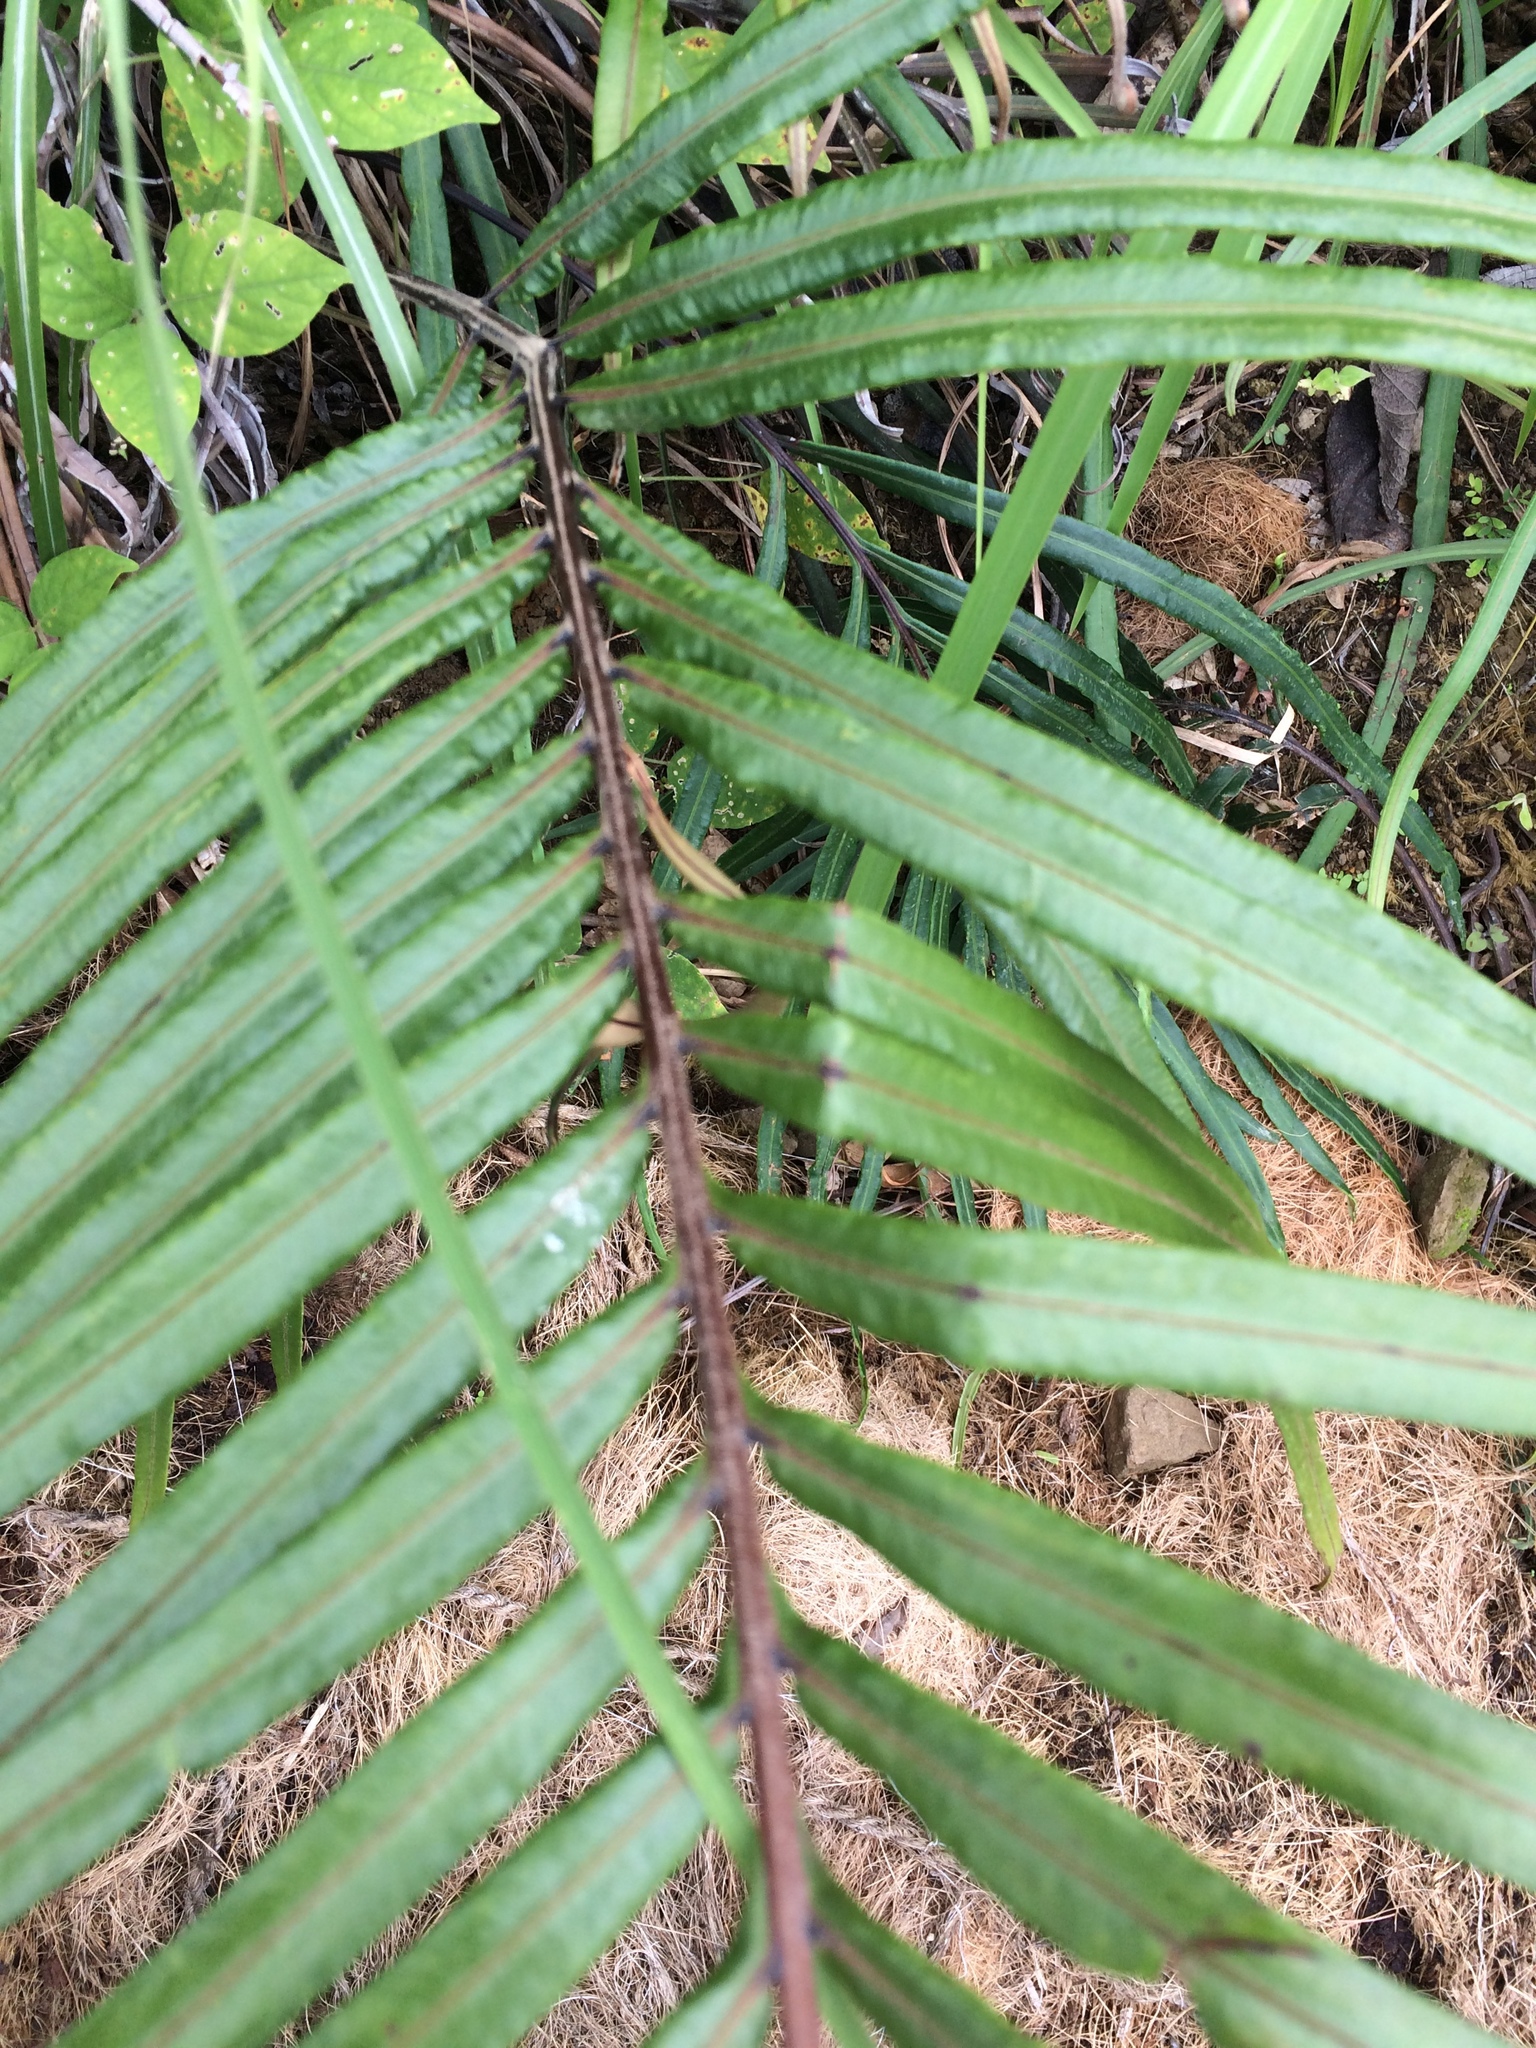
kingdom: Plantae
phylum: Tracheophyta
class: Polypodiopsida
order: Polypodiales
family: Blechnaceae
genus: Blechnopsis
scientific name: Blechnopsis orientalis
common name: Oriental blechnum
